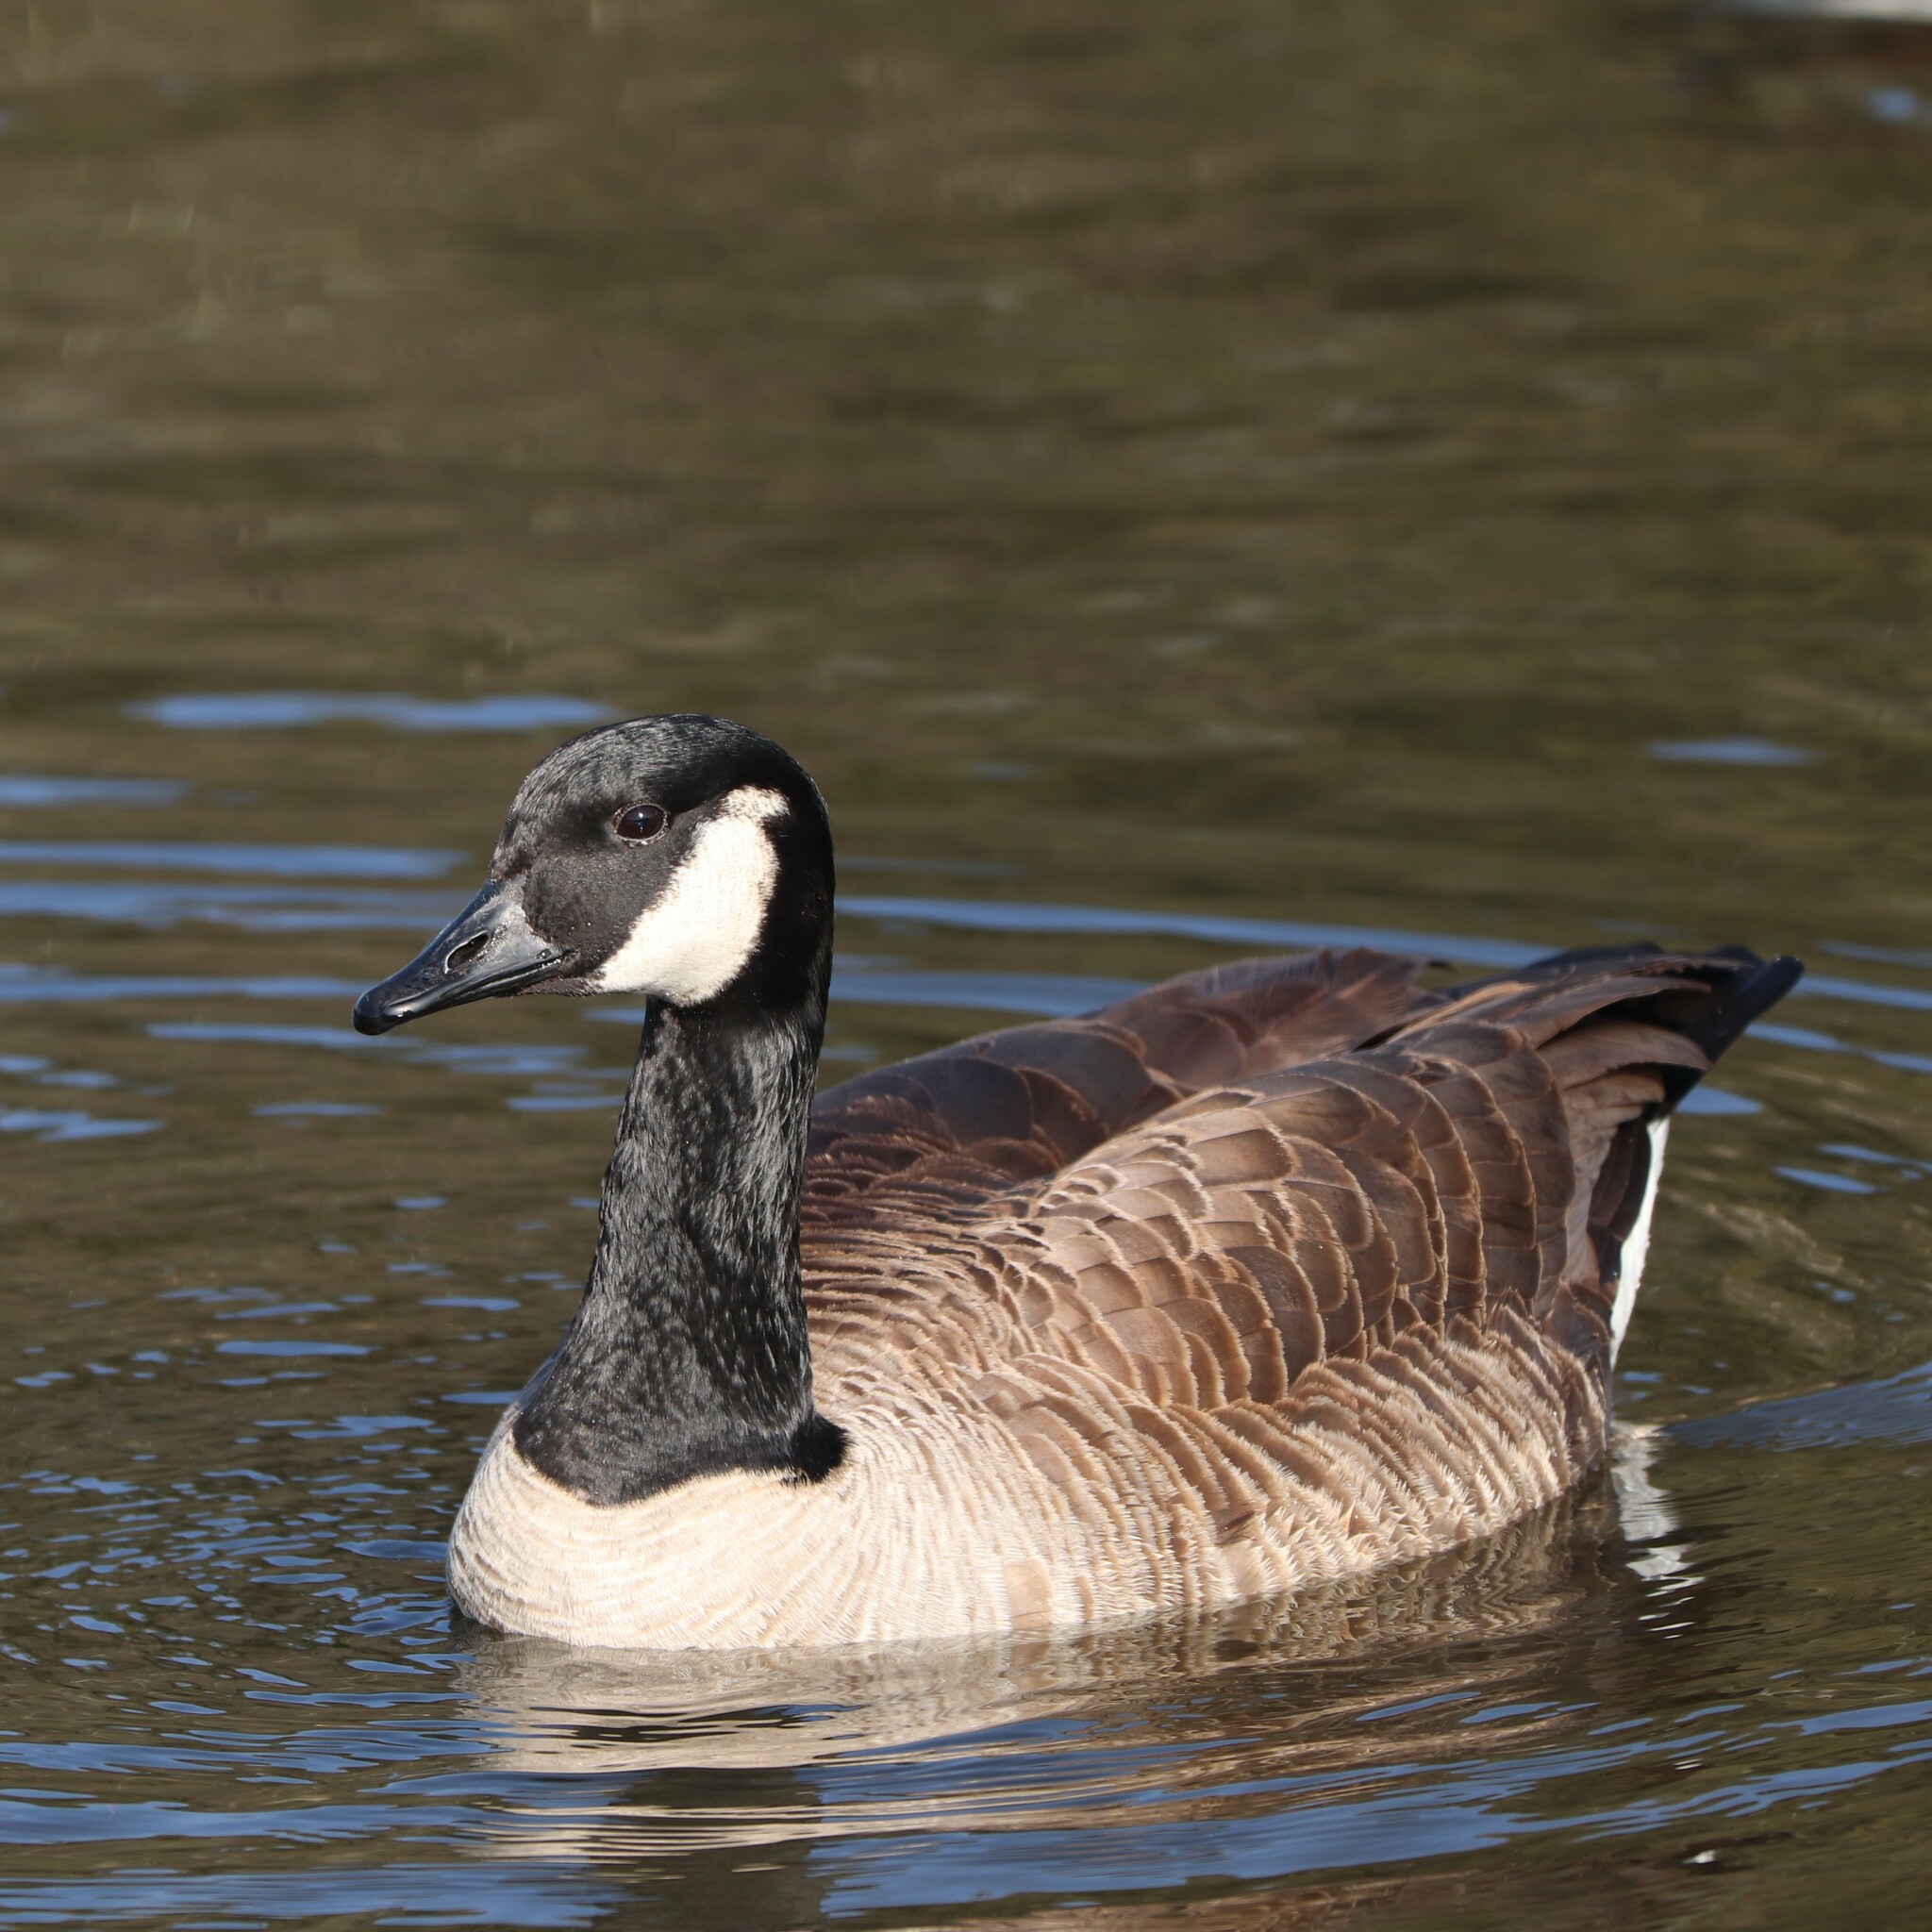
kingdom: Animalia
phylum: Chordata
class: Aves
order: Anseriformes
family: Anatidae
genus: Branta
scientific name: Branta canadensis
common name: Canada goose
